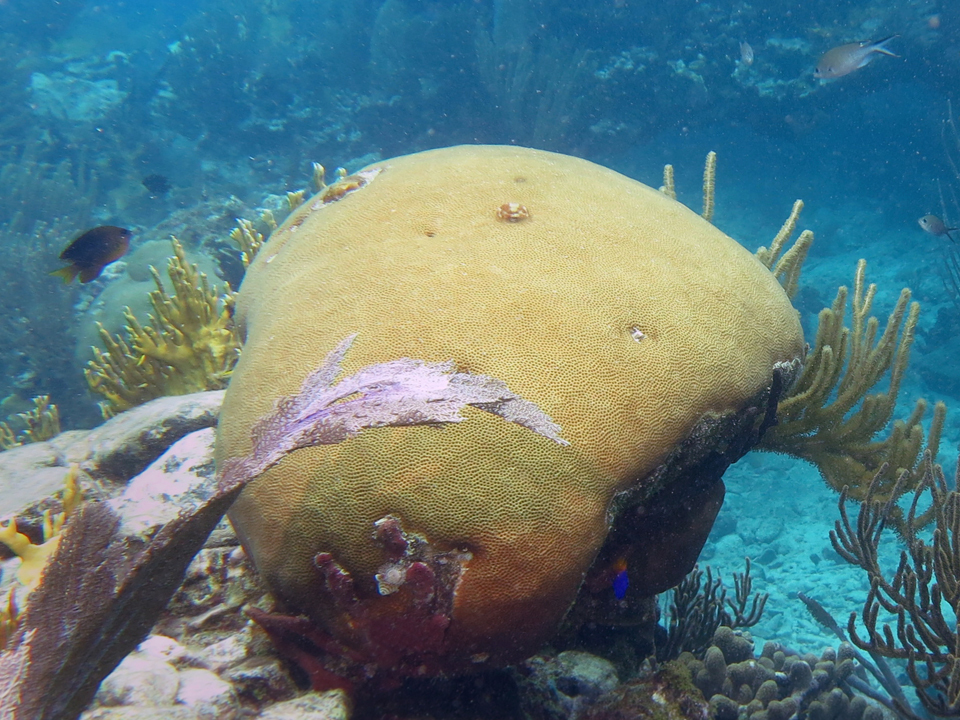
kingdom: Animalia
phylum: Cnidaria
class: Anthozoa
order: Scleractinia
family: Rhizangiidae
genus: Siderastrea
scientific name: Siderastrea siderea
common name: Massive starlet coral
